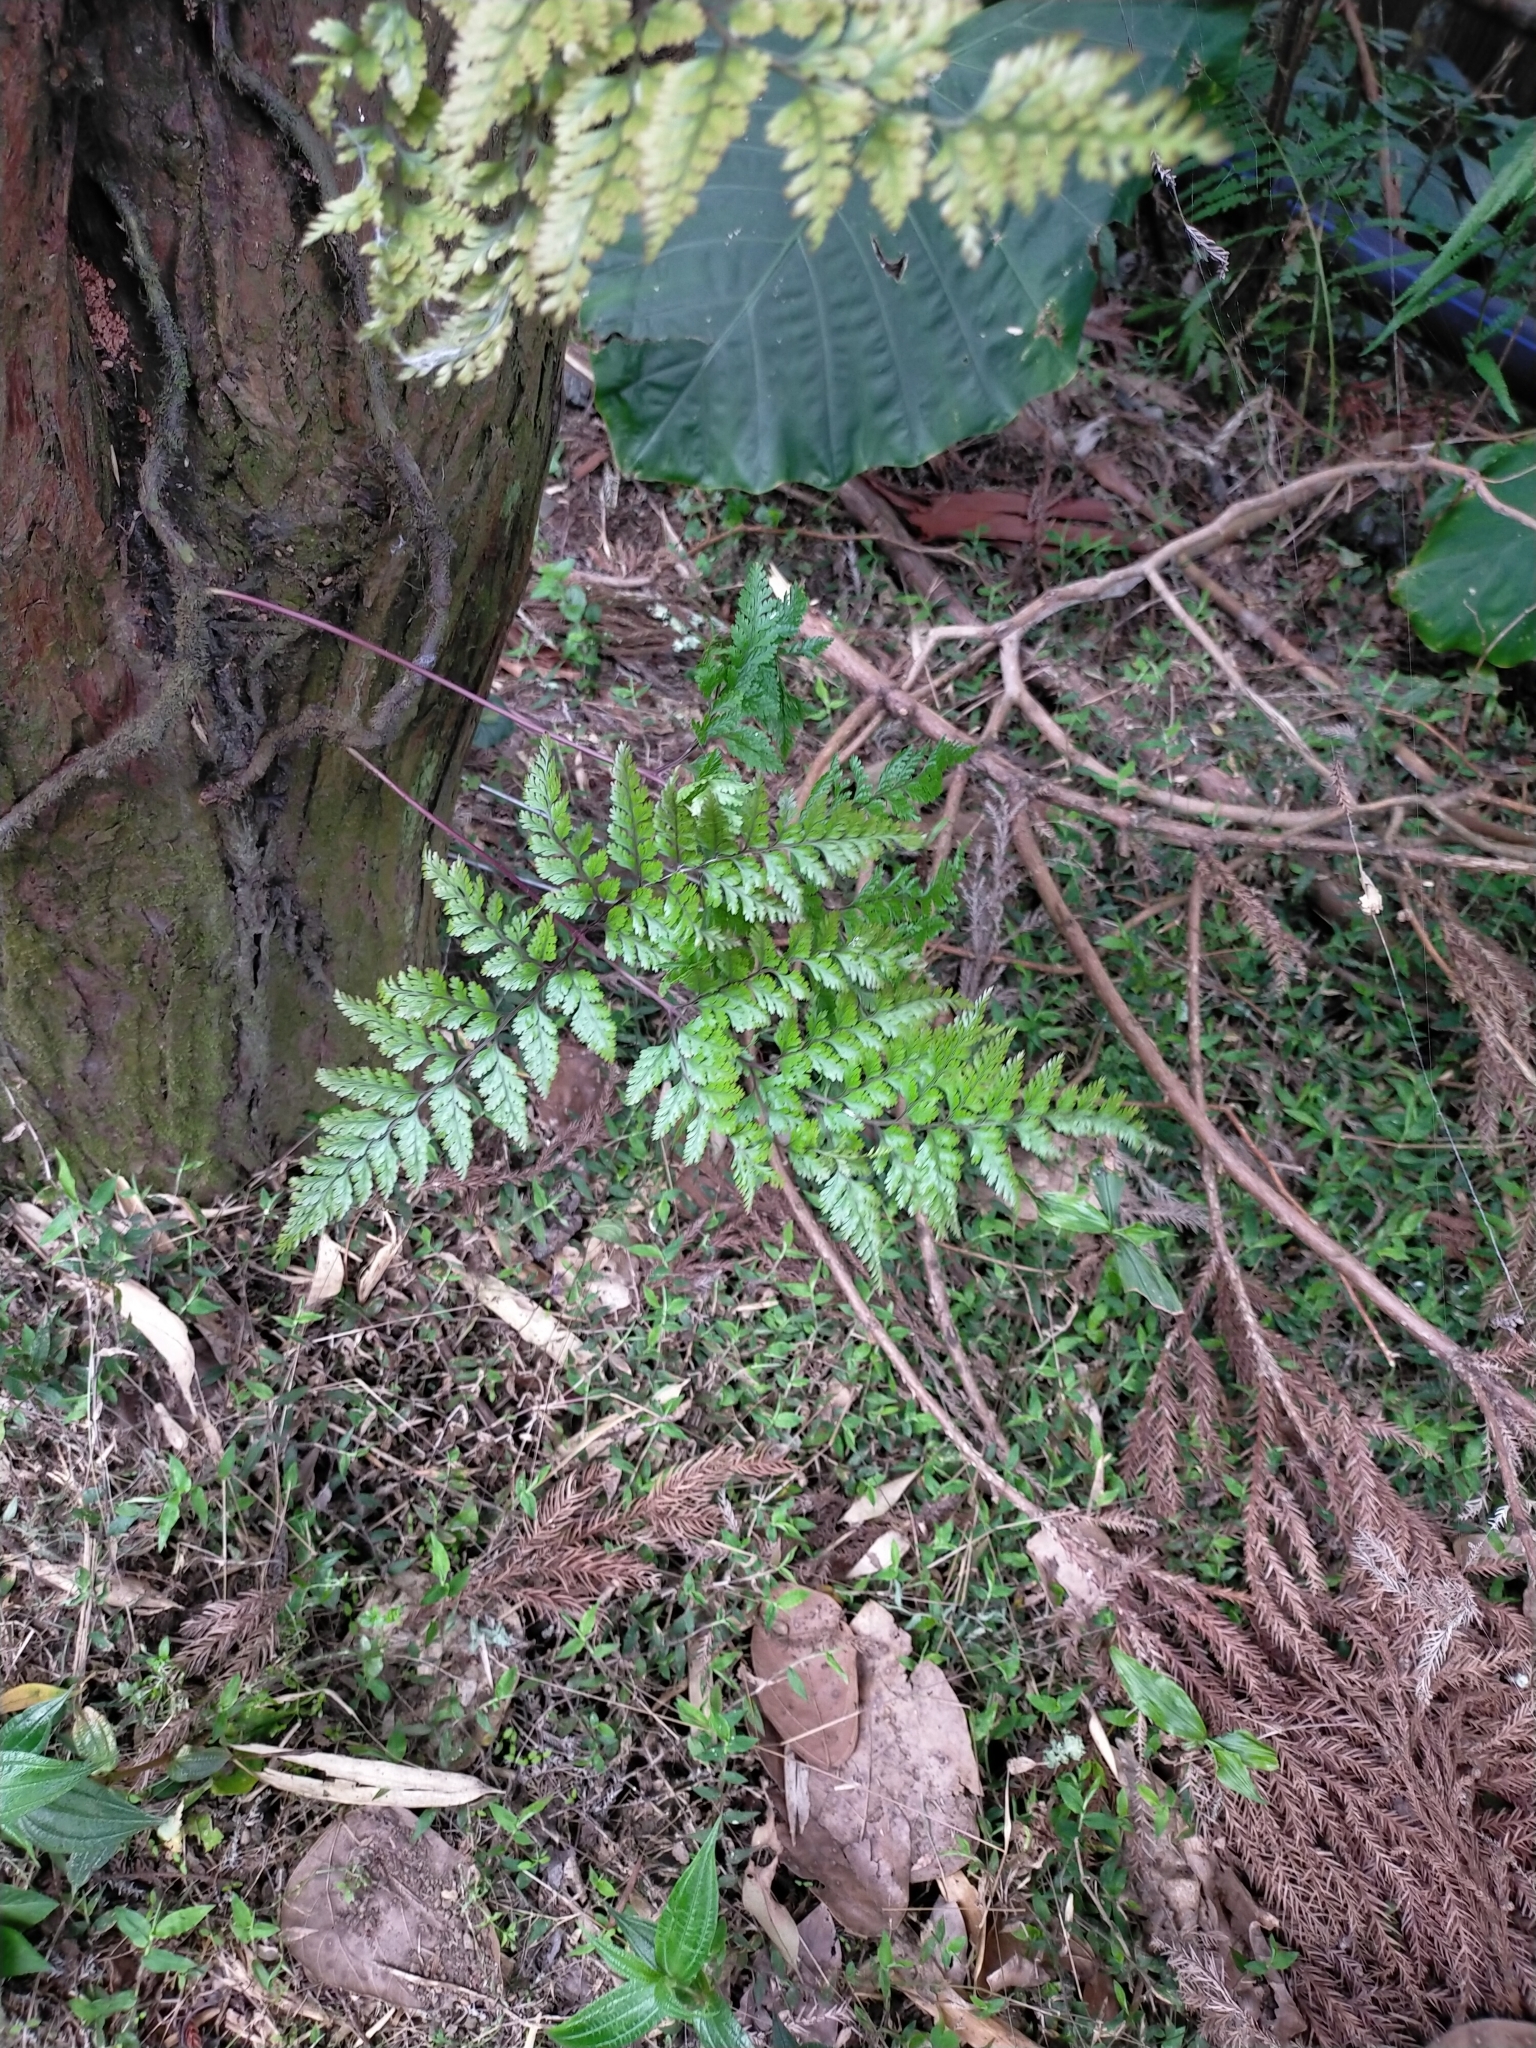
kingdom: Plantae
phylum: Tracheophyta
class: Polypodiopsida
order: Polypodiales
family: Davalliaceae
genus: Davallia
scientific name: Davallia trichomanoides
